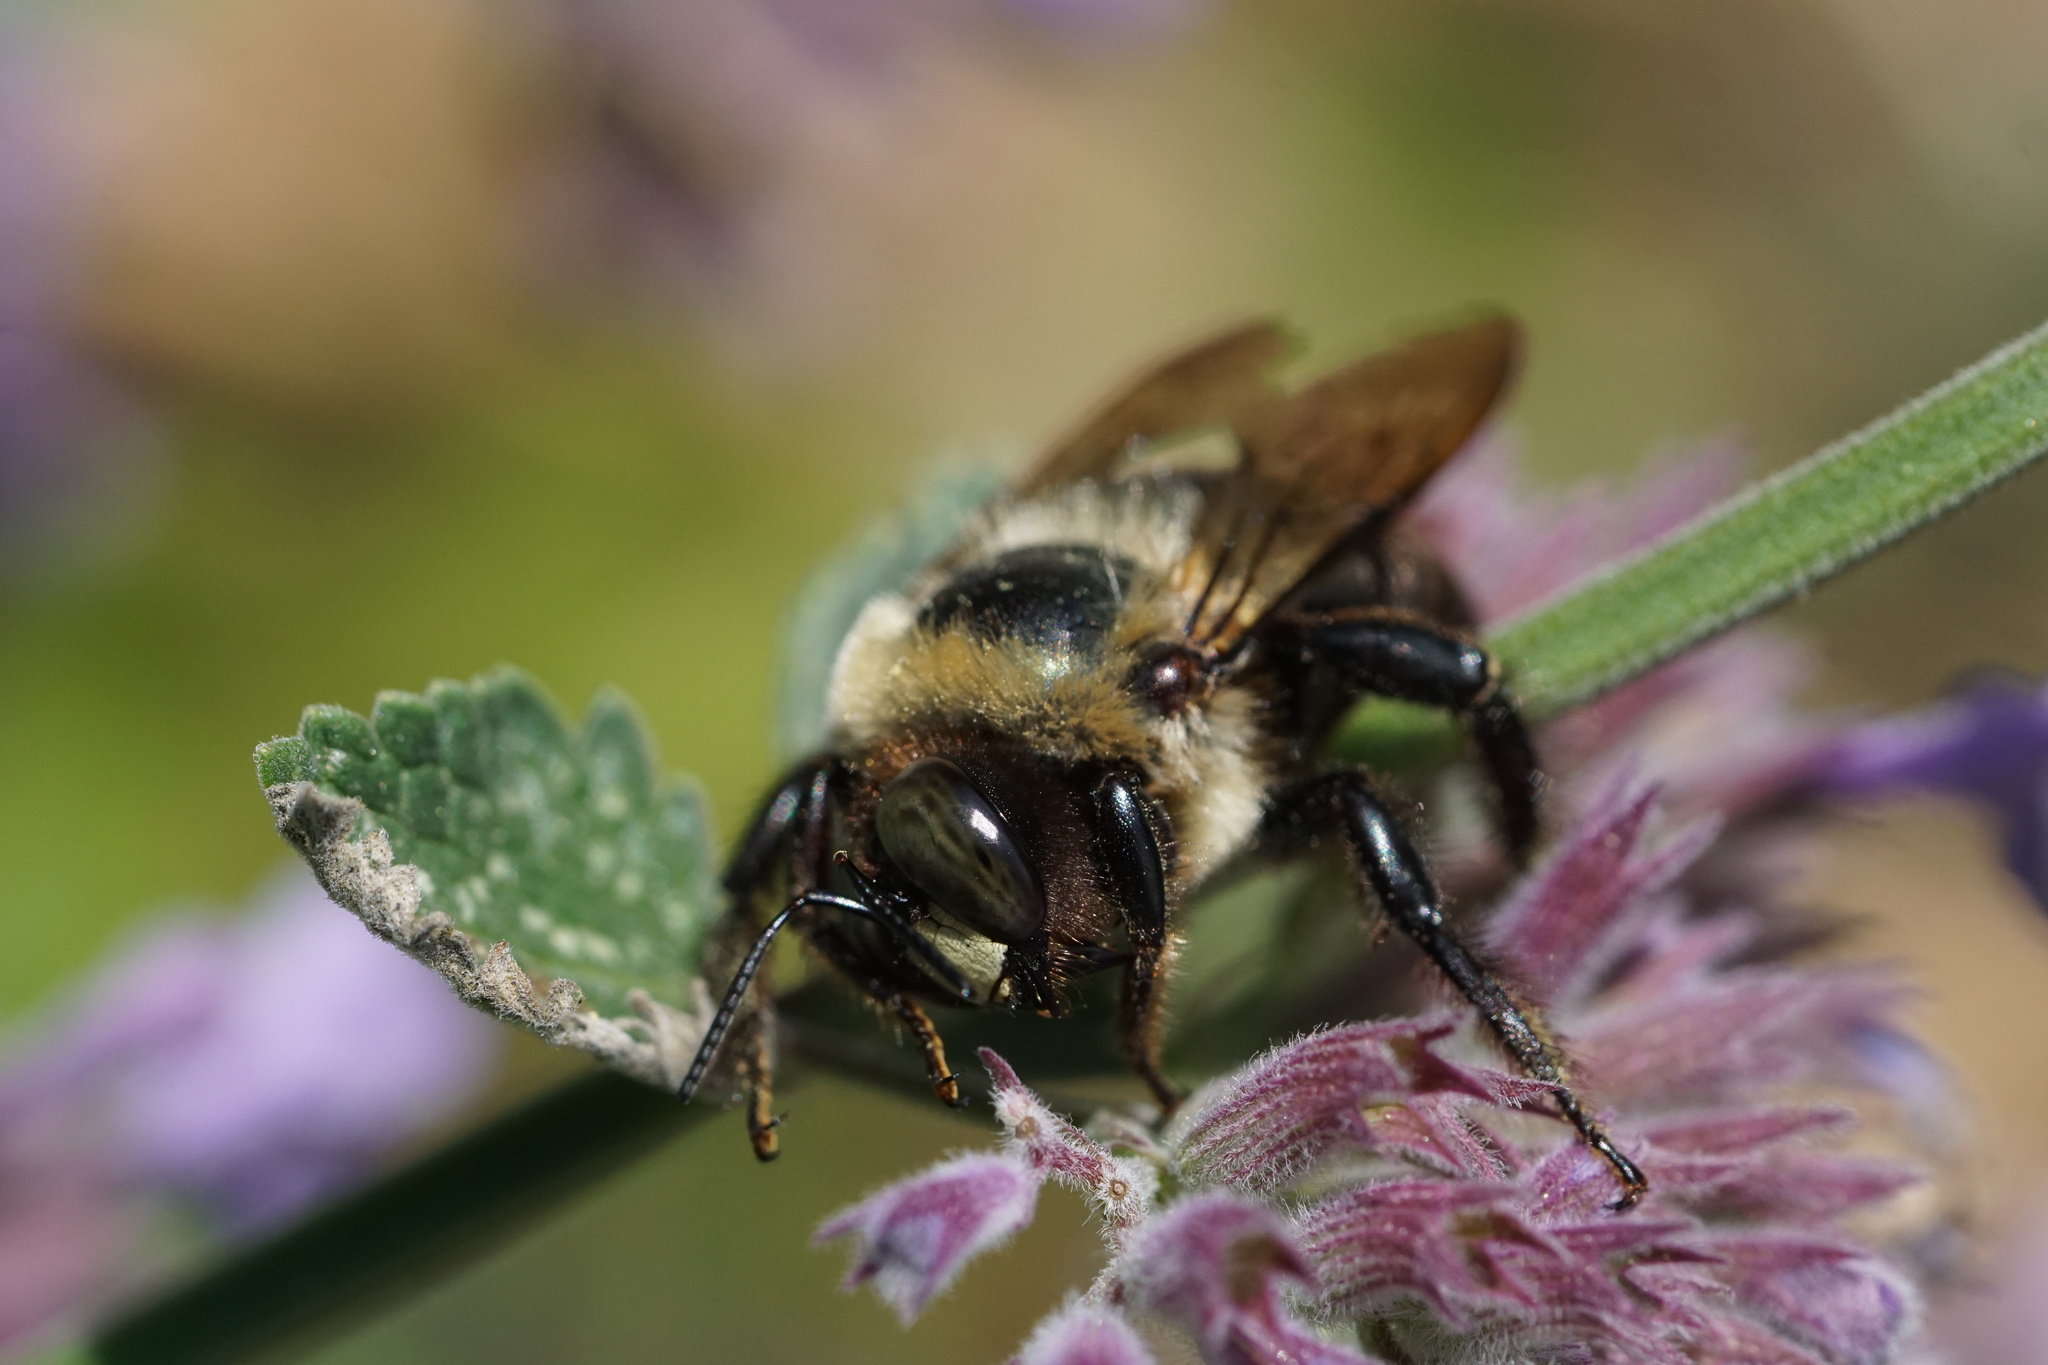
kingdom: Animalia
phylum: Arthropoda
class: Insecta
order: Hymenoptera
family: Apidae
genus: Xylocopa
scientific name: Xylocopa virginica
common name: Carpenter bee
